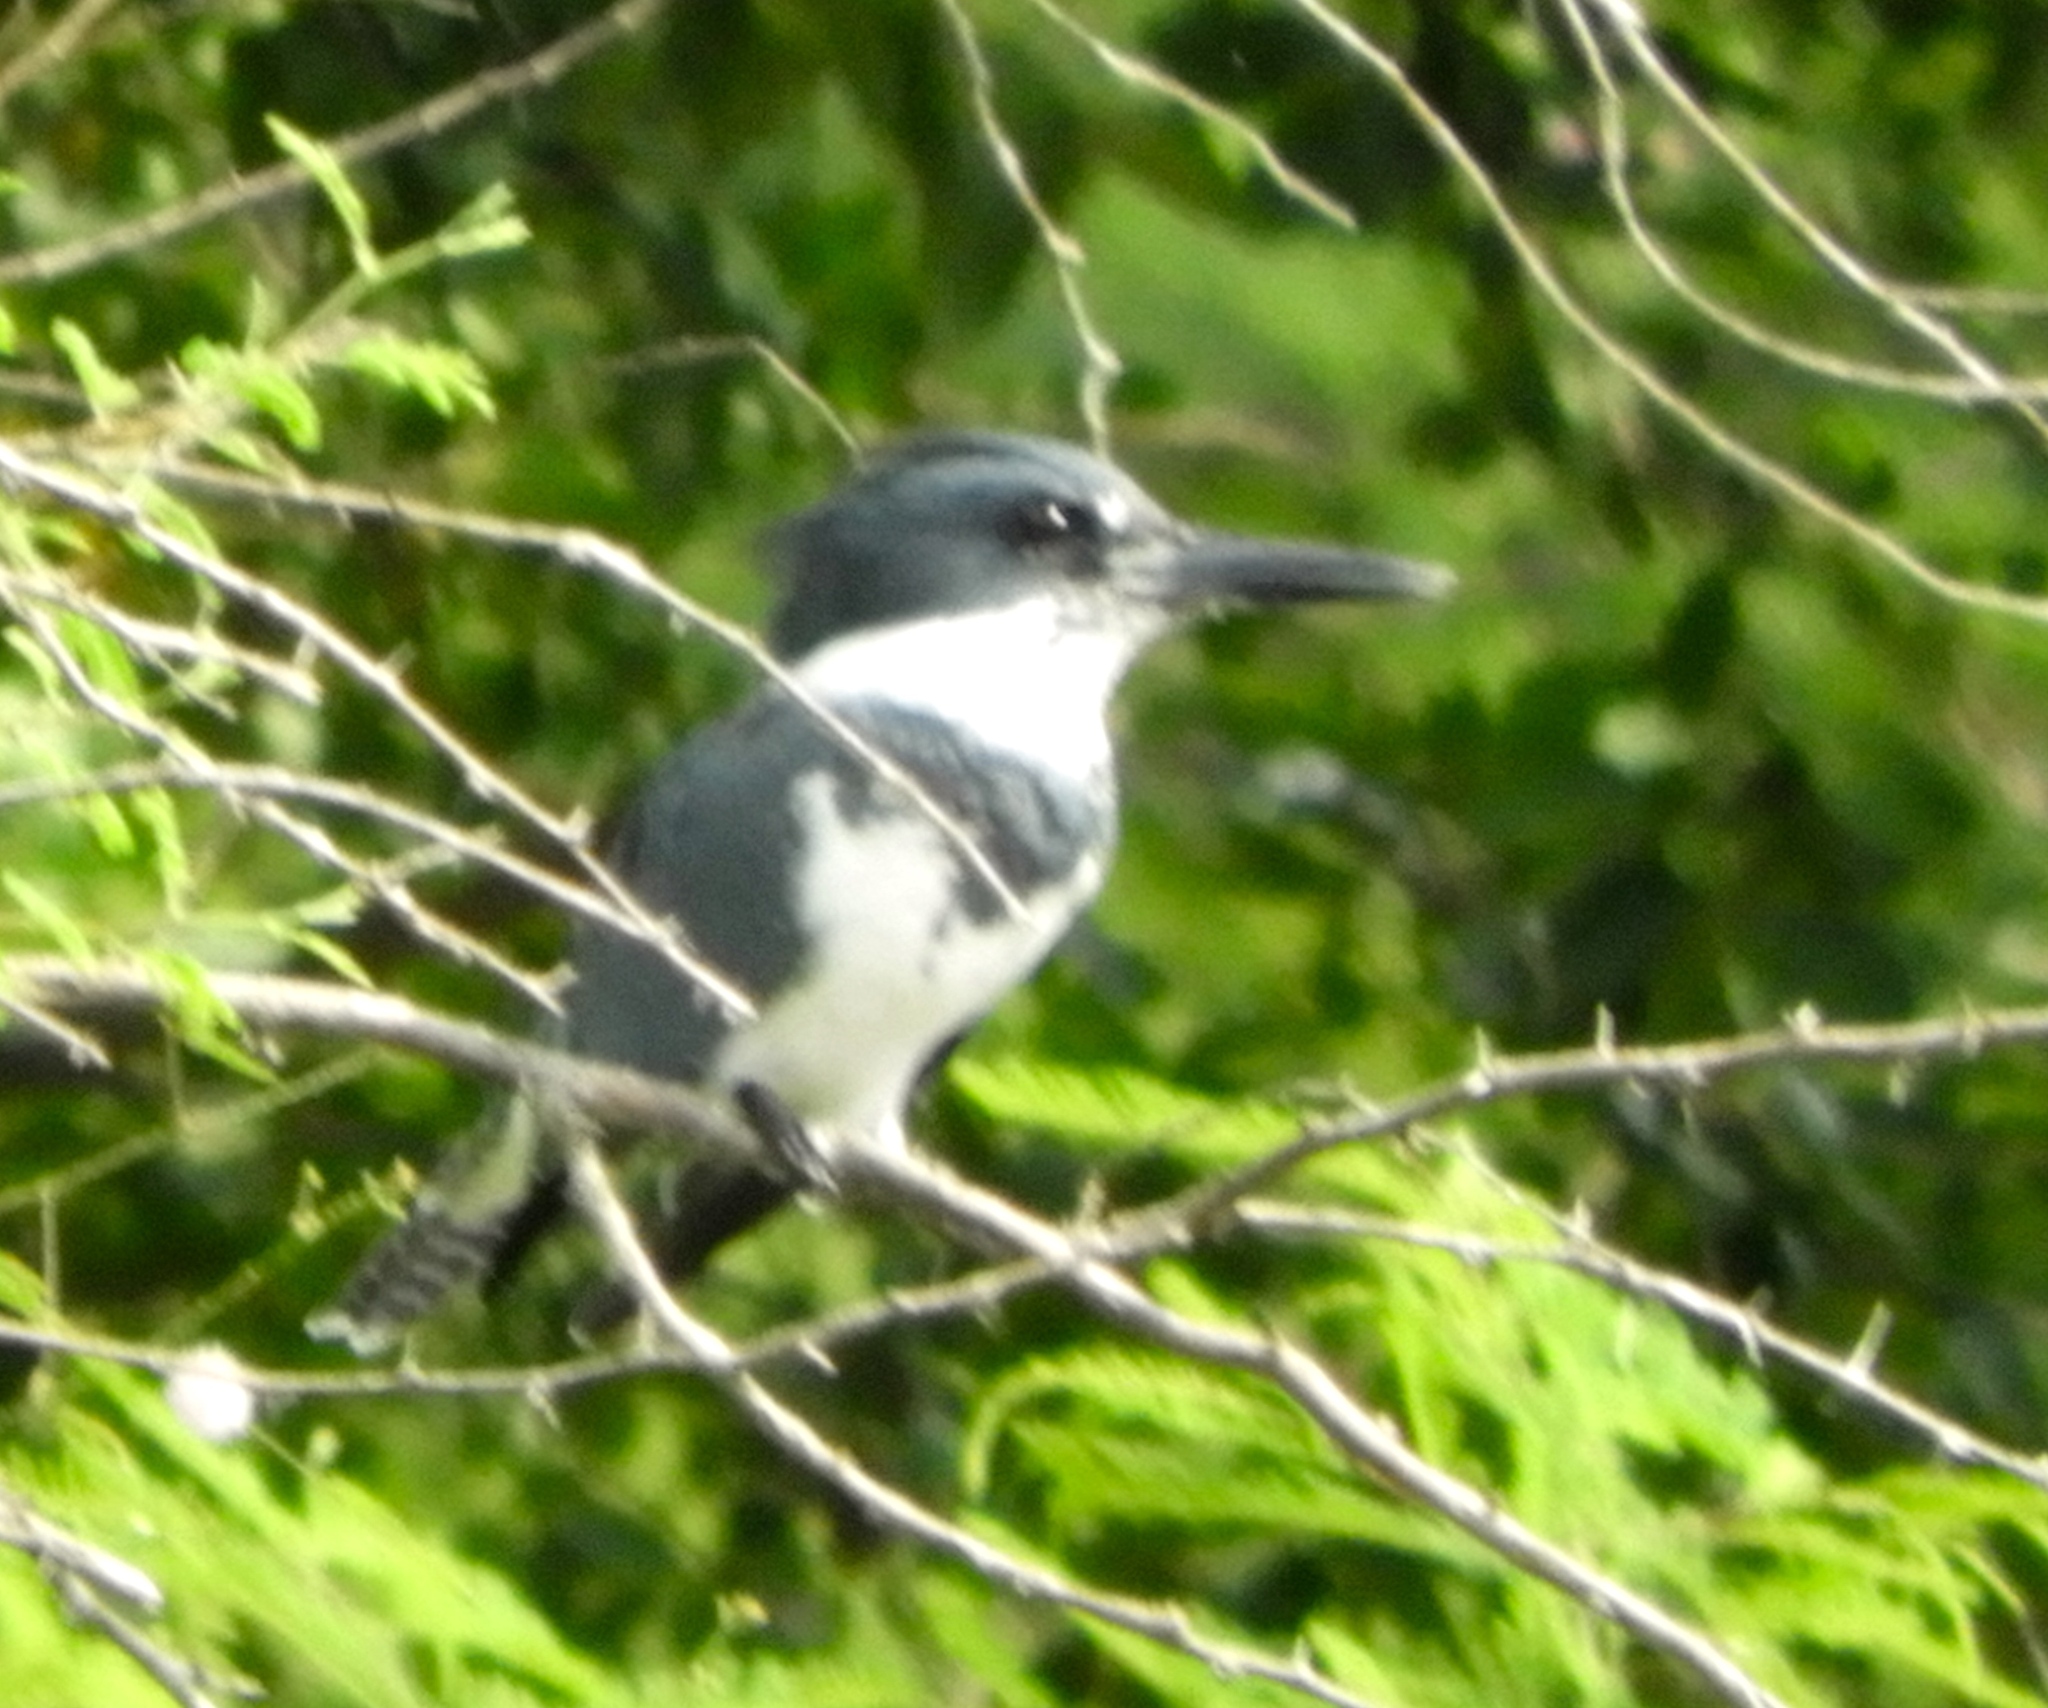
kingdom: Animalia
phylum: Chordata
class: Aves
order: Coraciiformes
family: Alcedinidae
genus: Megaceryle
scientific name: Megaceryle alcyon
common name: Belted kingfisher
